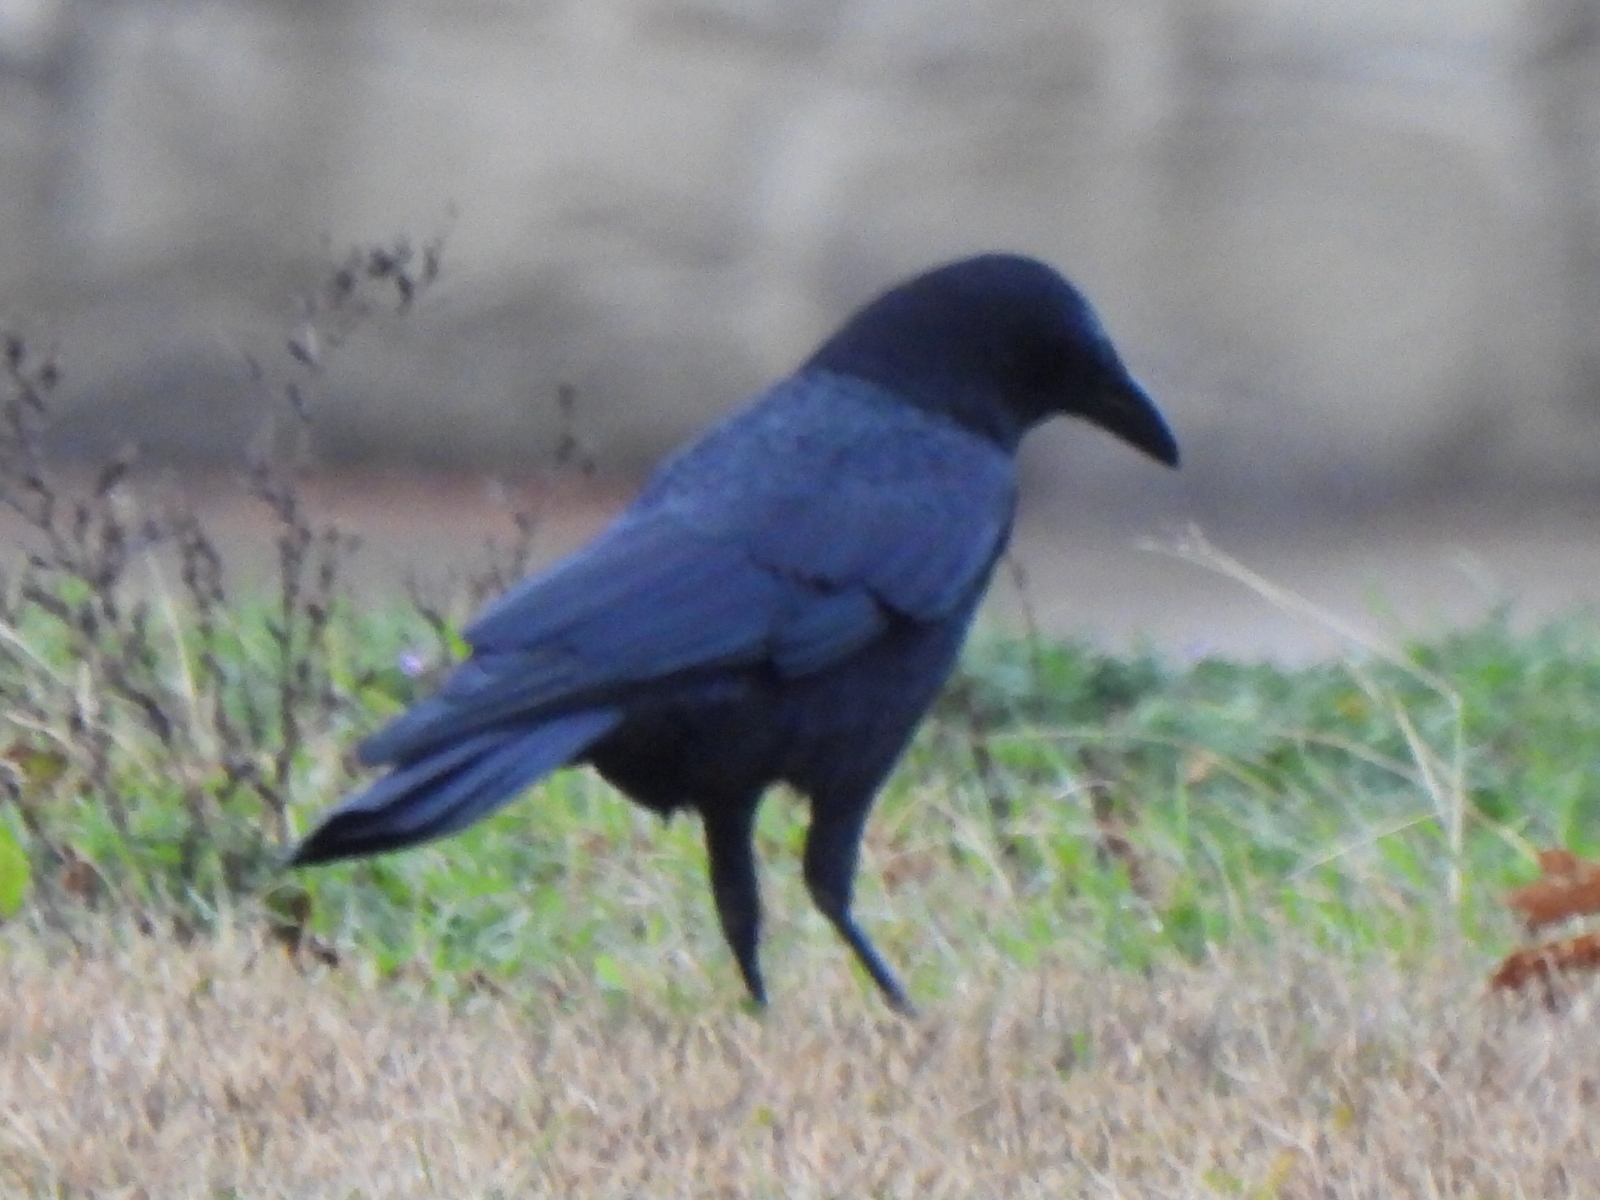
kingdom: Animalia
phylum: Chordata
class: Aves
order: Passeriformes
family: Corvidae
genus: Corvus
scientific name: Corvus brachyrhynchos
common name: American crow
